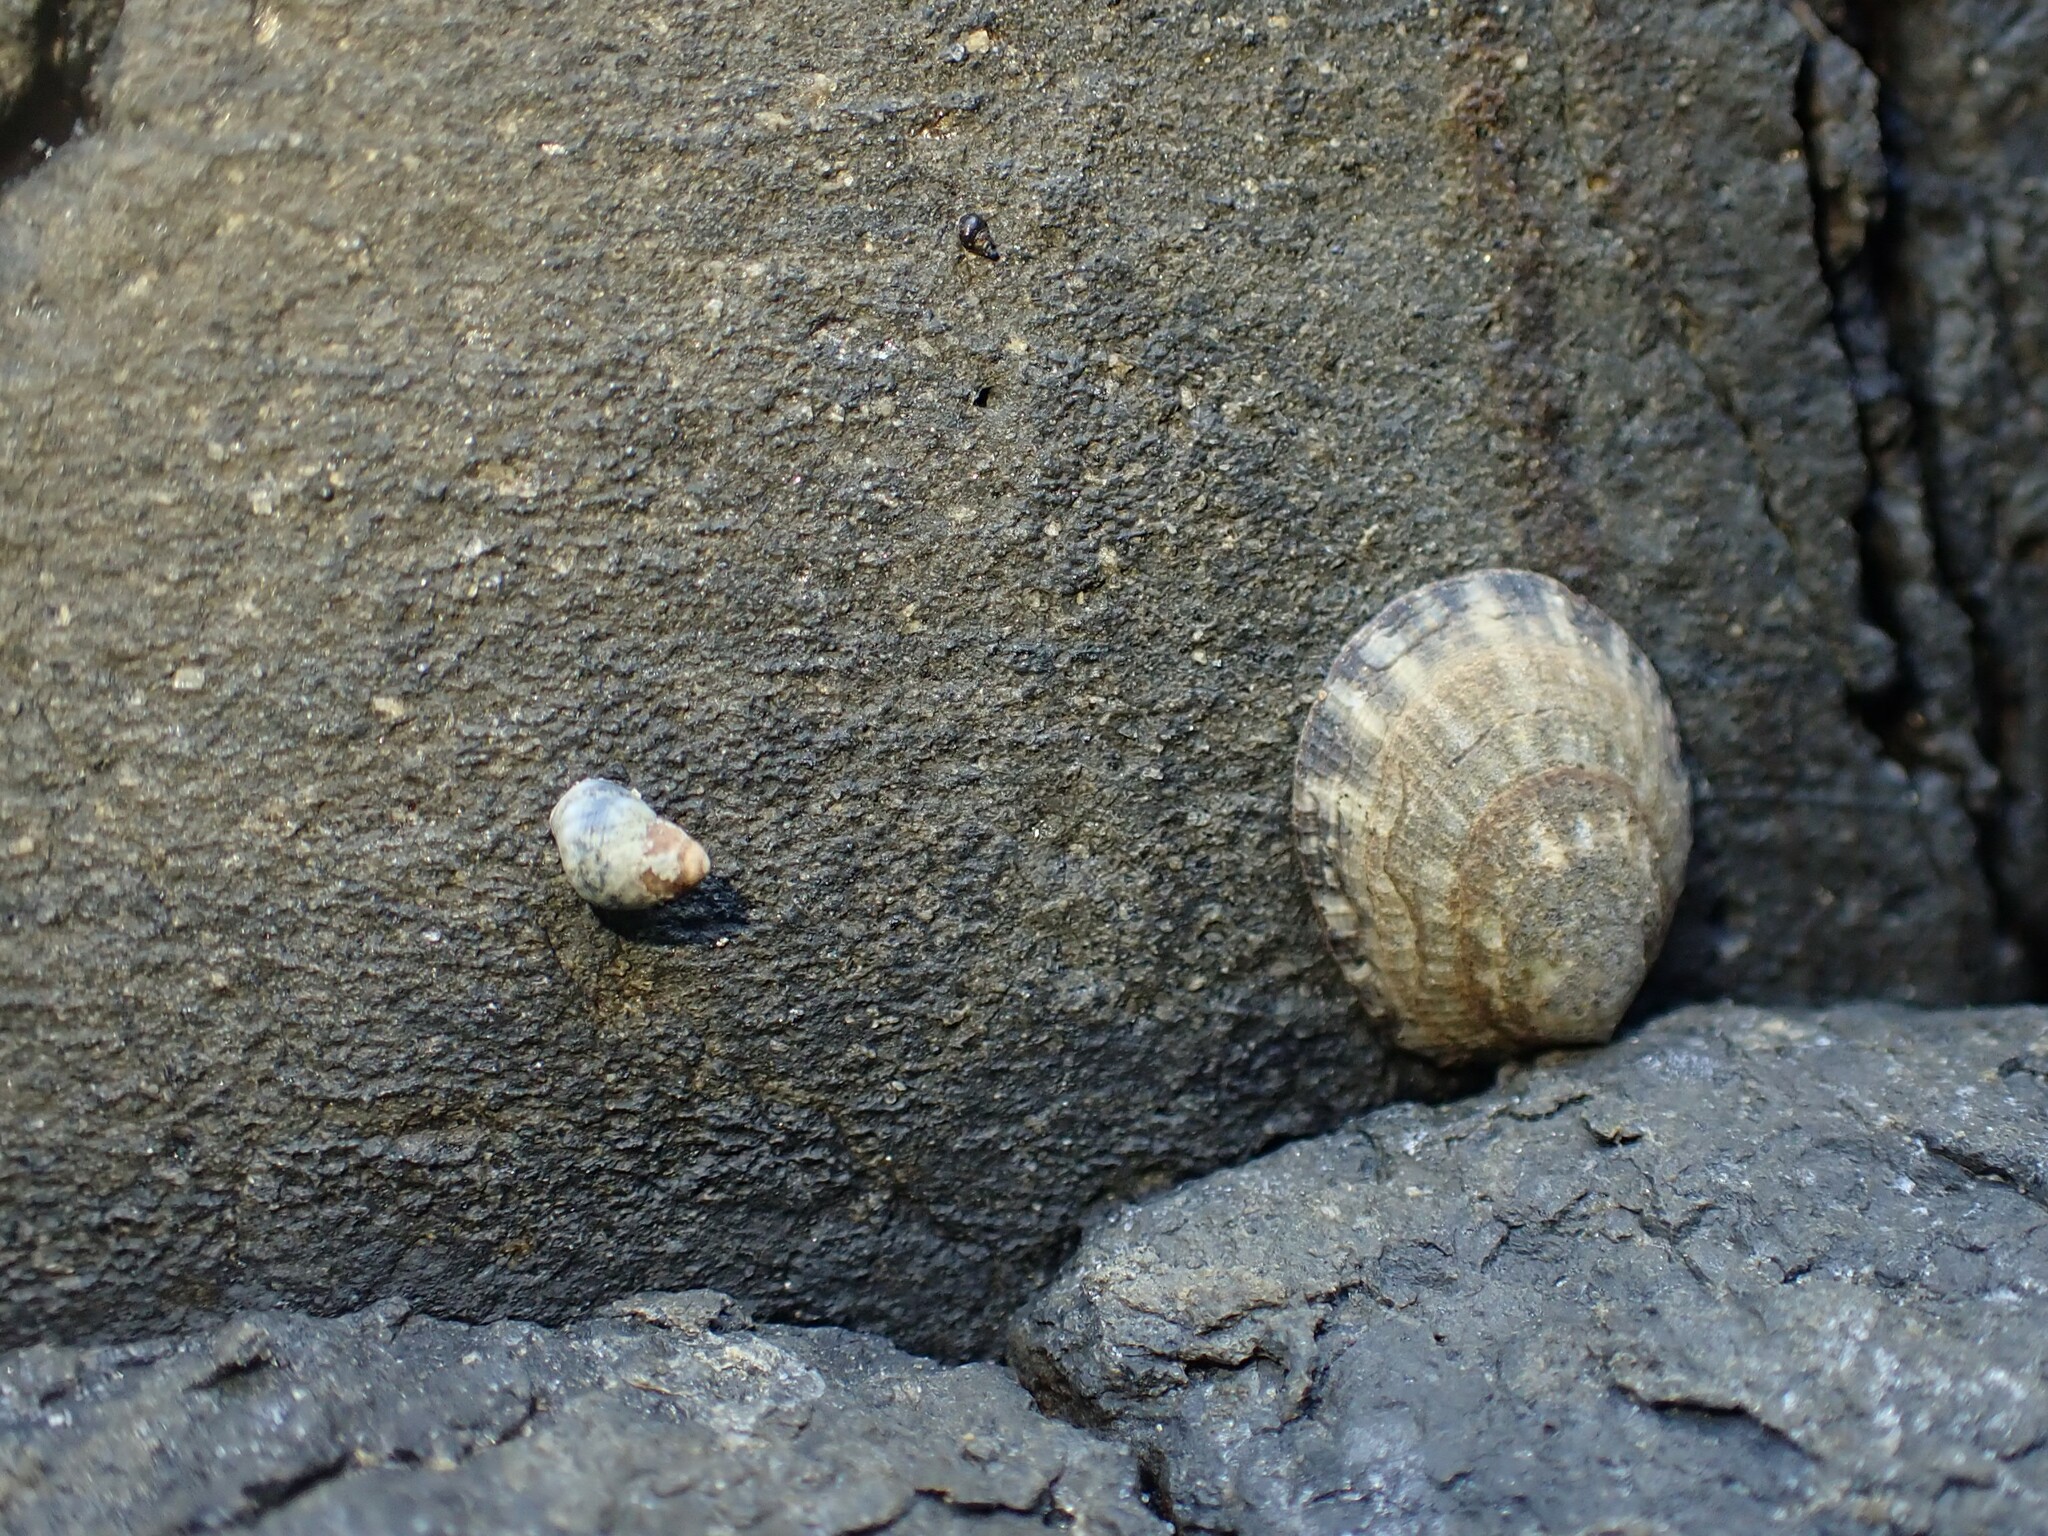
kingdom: Animalia
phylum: Mollusca
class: Gastropoda
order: Littorinimorpha
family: Littorinidae
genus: Austrolittorina
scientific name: Austrolittorina antipodum
